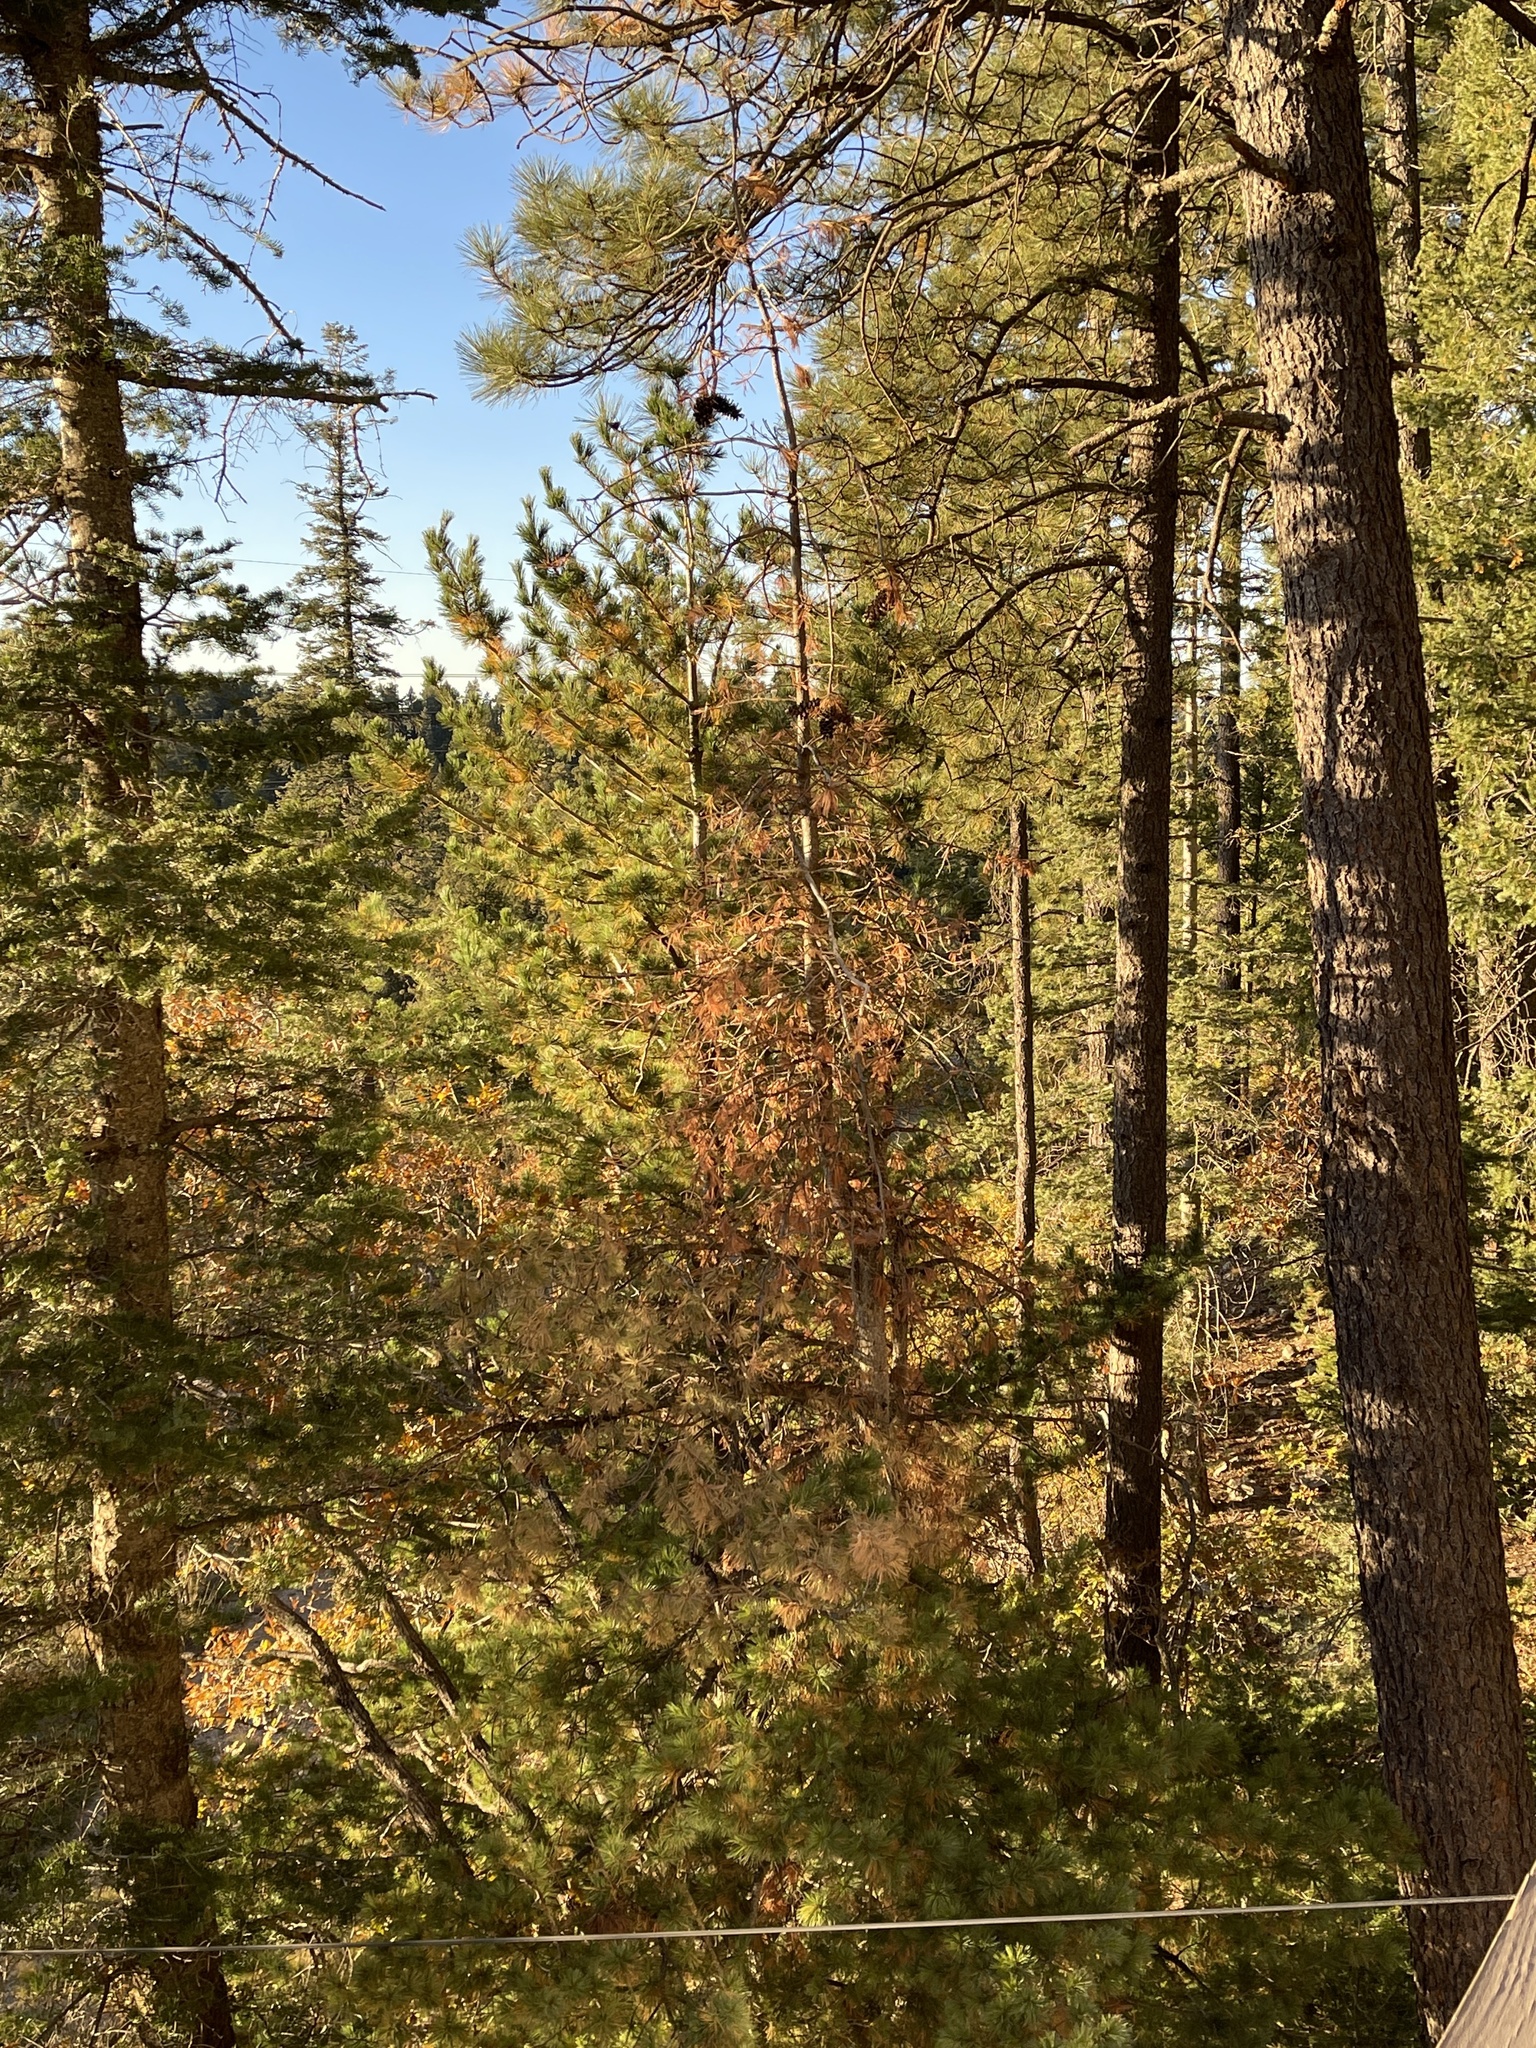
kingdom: Plantae
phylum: Tracheophyta
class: Pinopsida
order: Pinales
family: Pinaceae
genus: Pinus
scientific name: Pinus strobiformis
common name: Southwestern white pine
